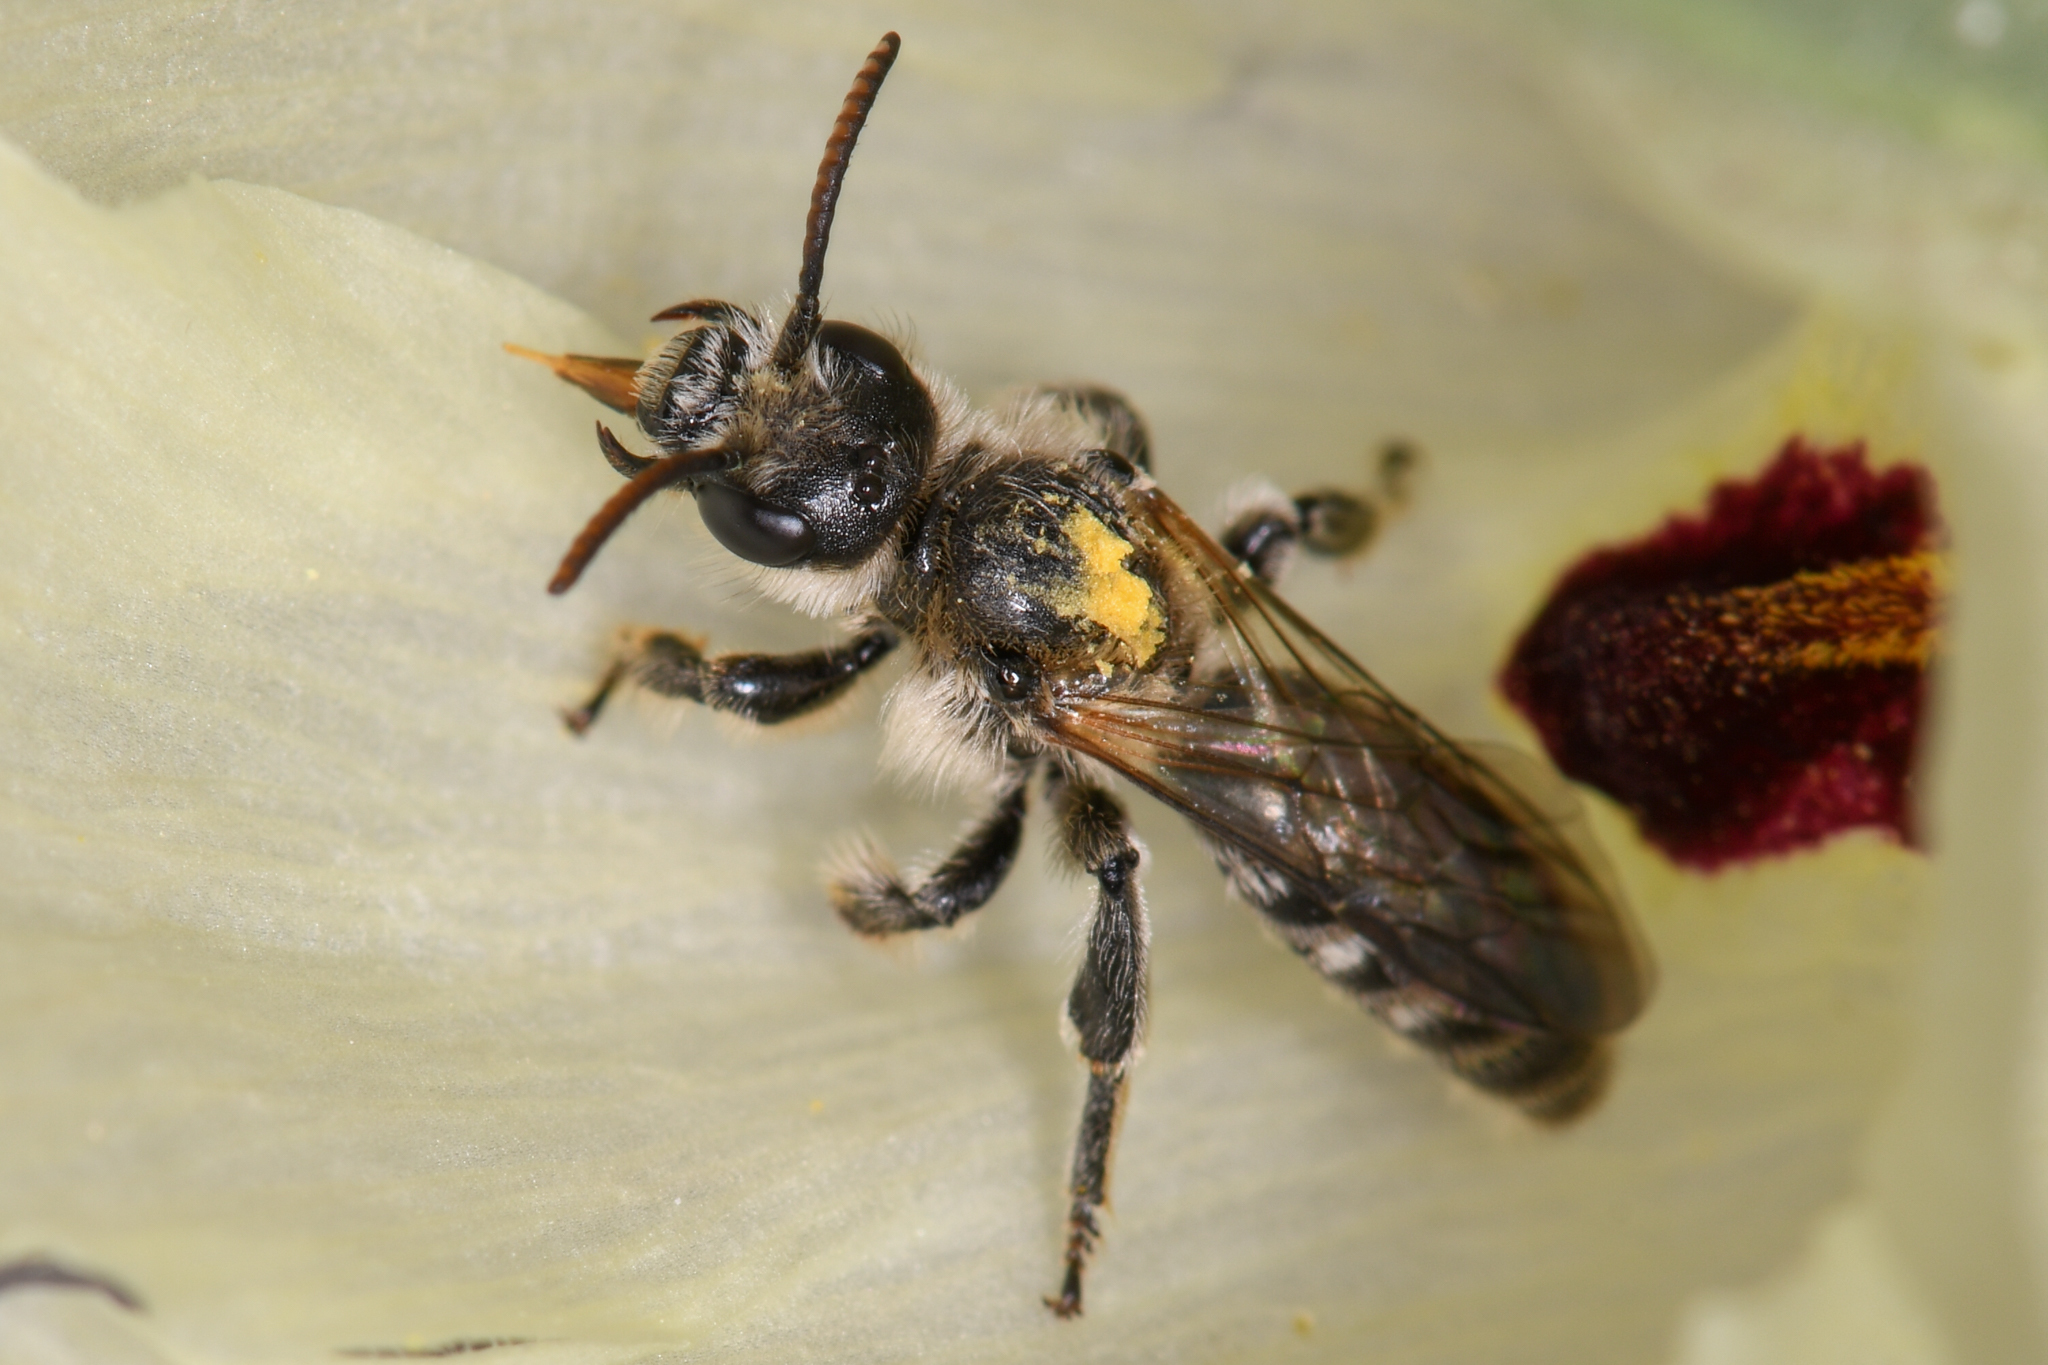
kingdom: Animalia
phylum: Arthropoda
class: Insecta
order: Hymenoptera
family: Halictidae
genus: Dufourea
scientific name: Dufourea echinocacti
